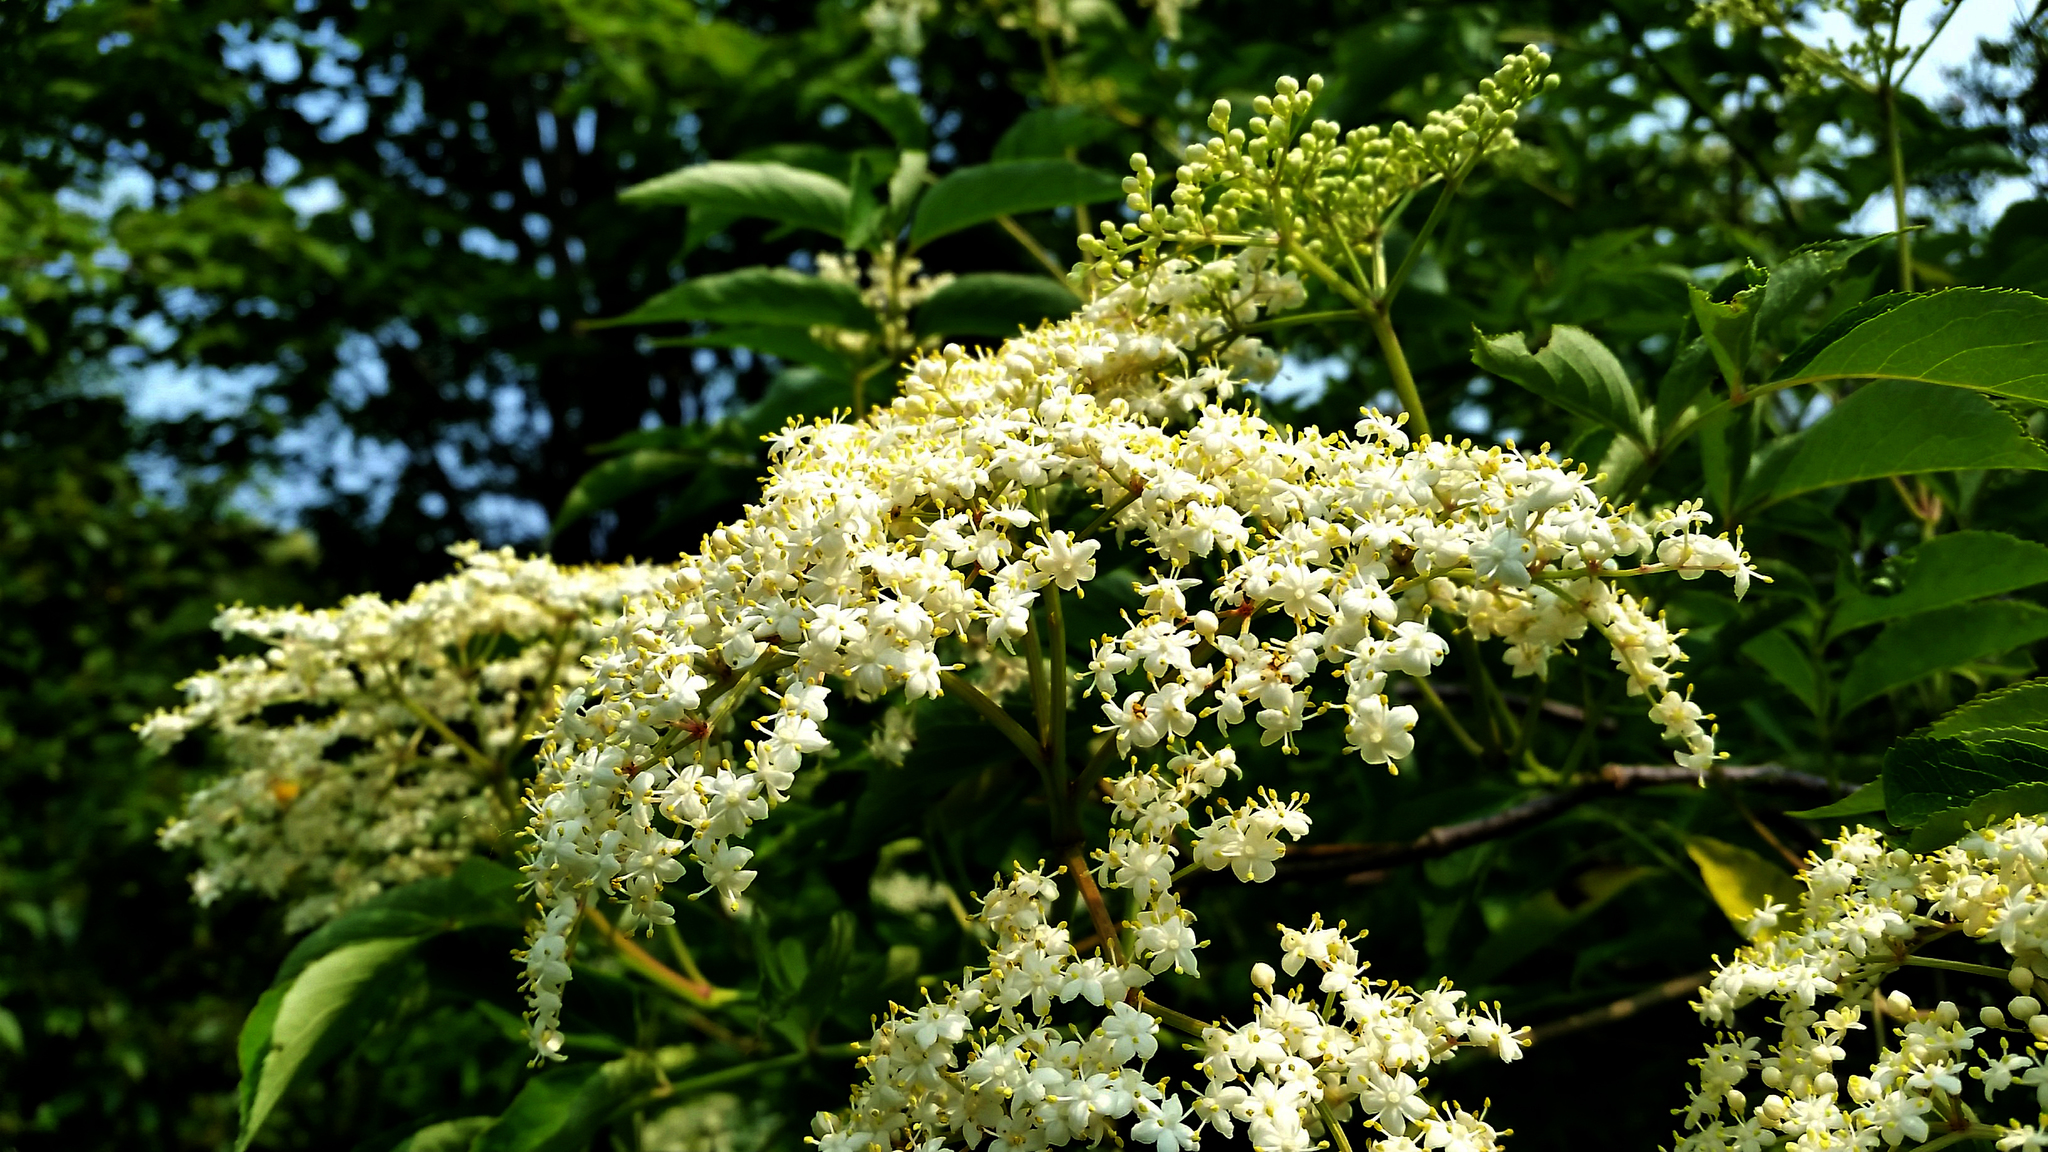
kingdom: Plantae
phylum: Tracheophyta
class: Magnoliopsida
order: Dipsacales
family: Viburnaceae
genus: Sambucus
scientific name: Sambucus canadensis
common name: American elder
